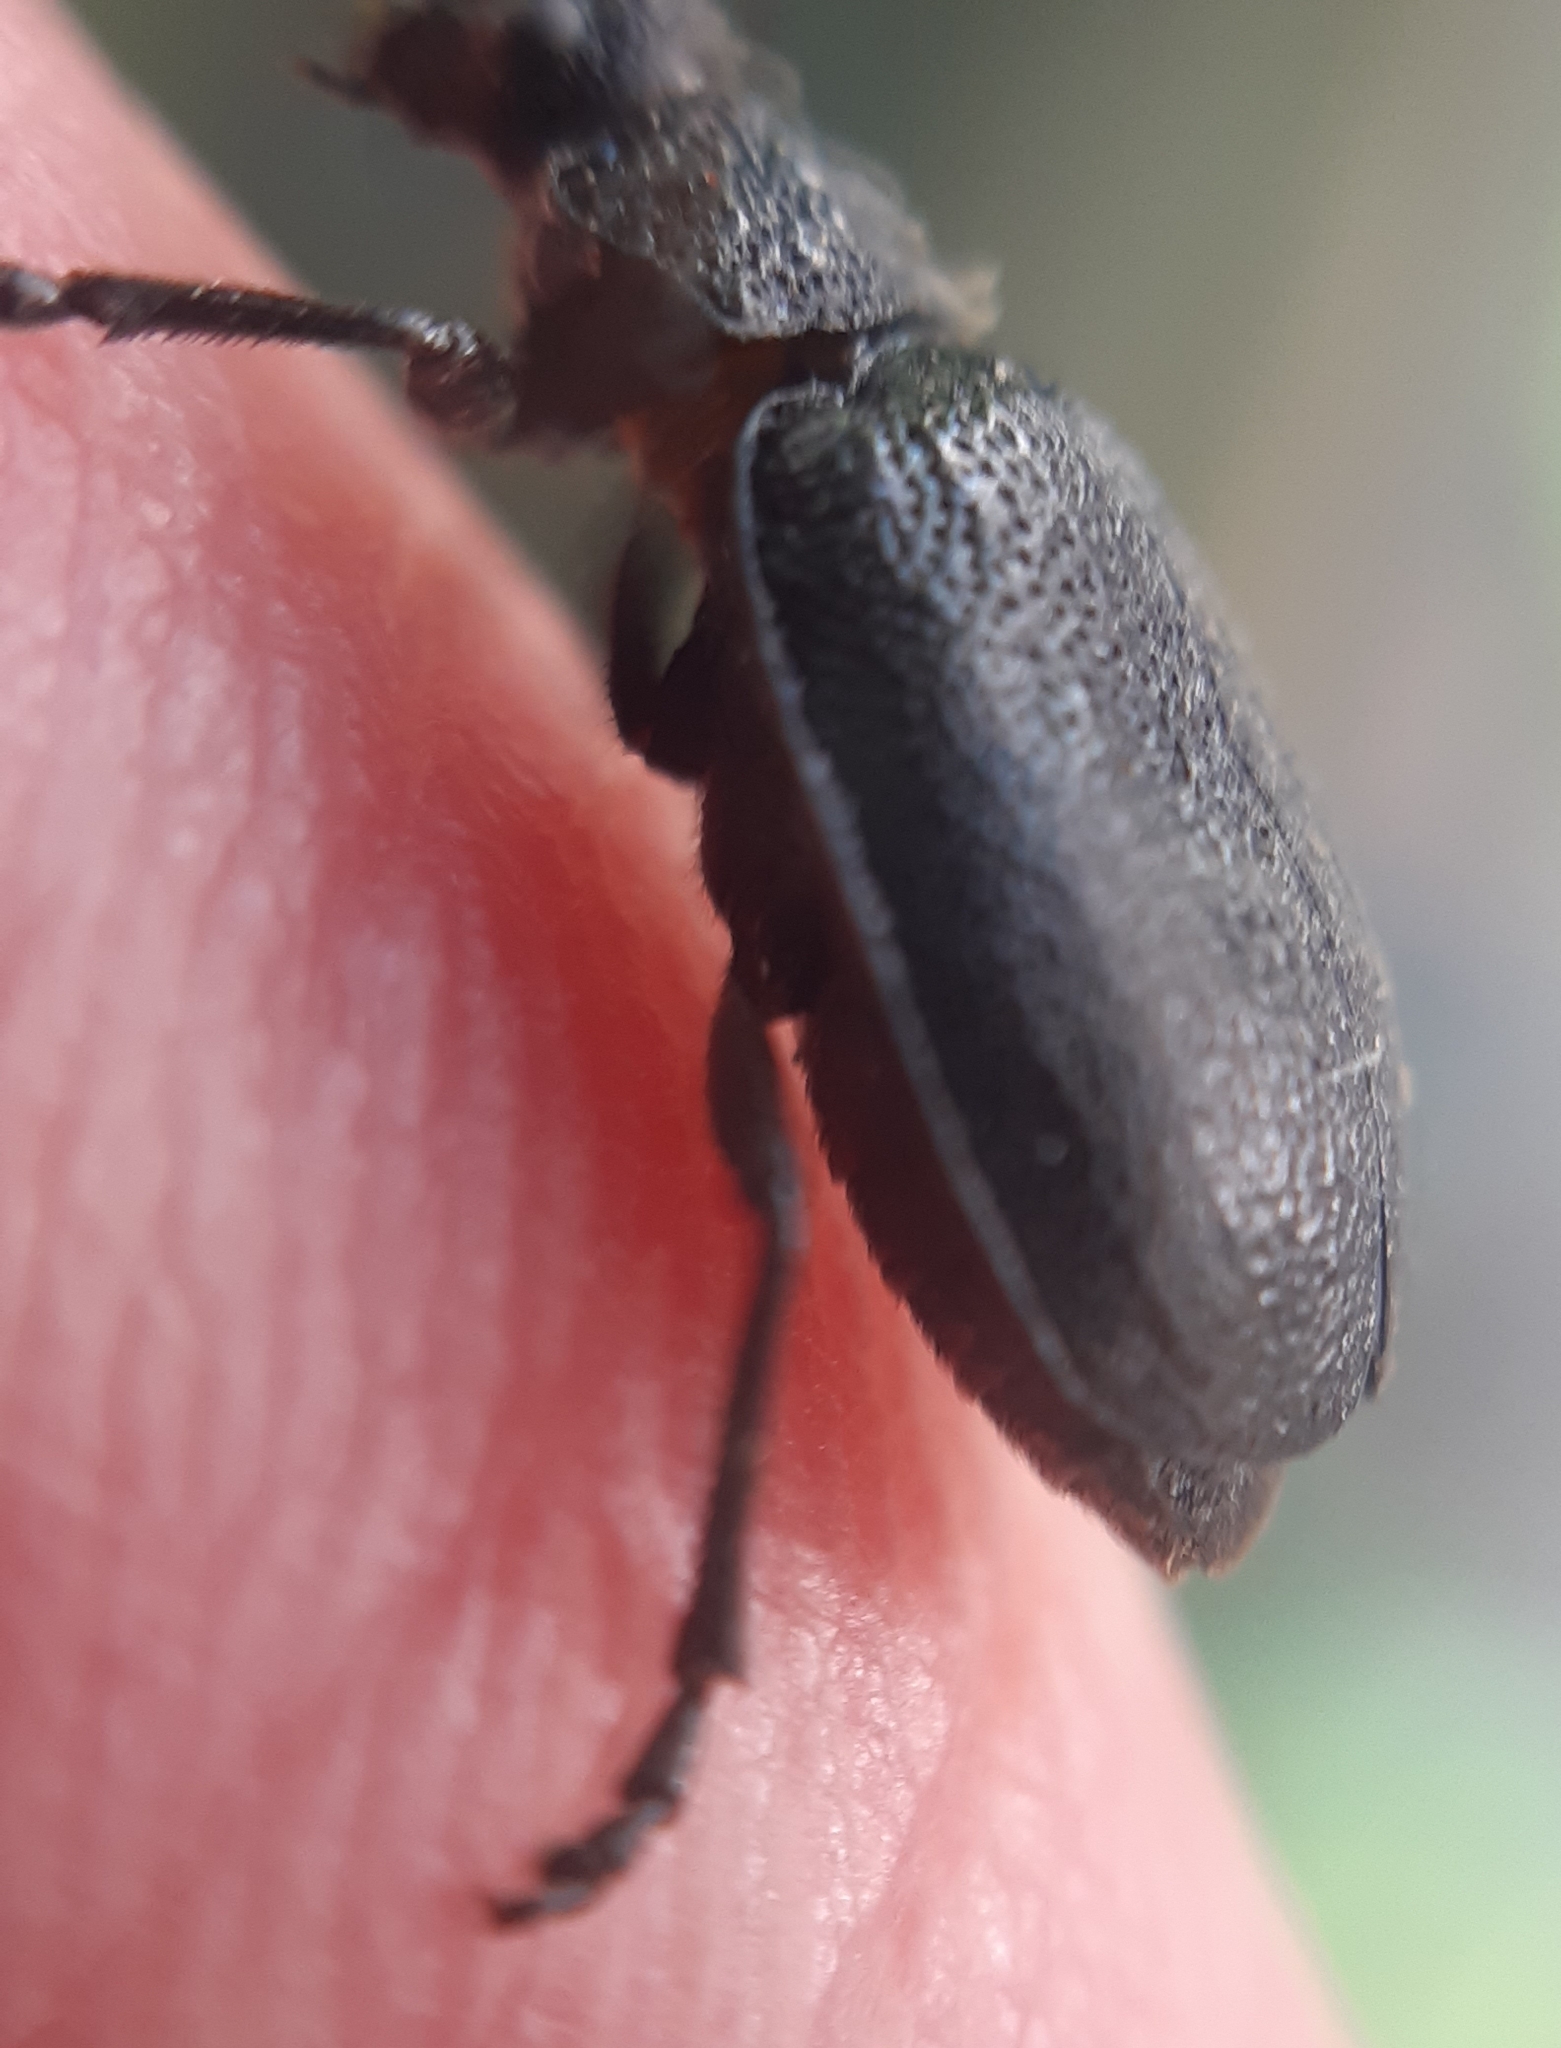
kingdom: Animalia
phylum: Arthropoda
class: Insecta
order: Coleoptera
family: Chrysomelidae
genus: Galeruca
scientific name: Galeruca tanaceti
